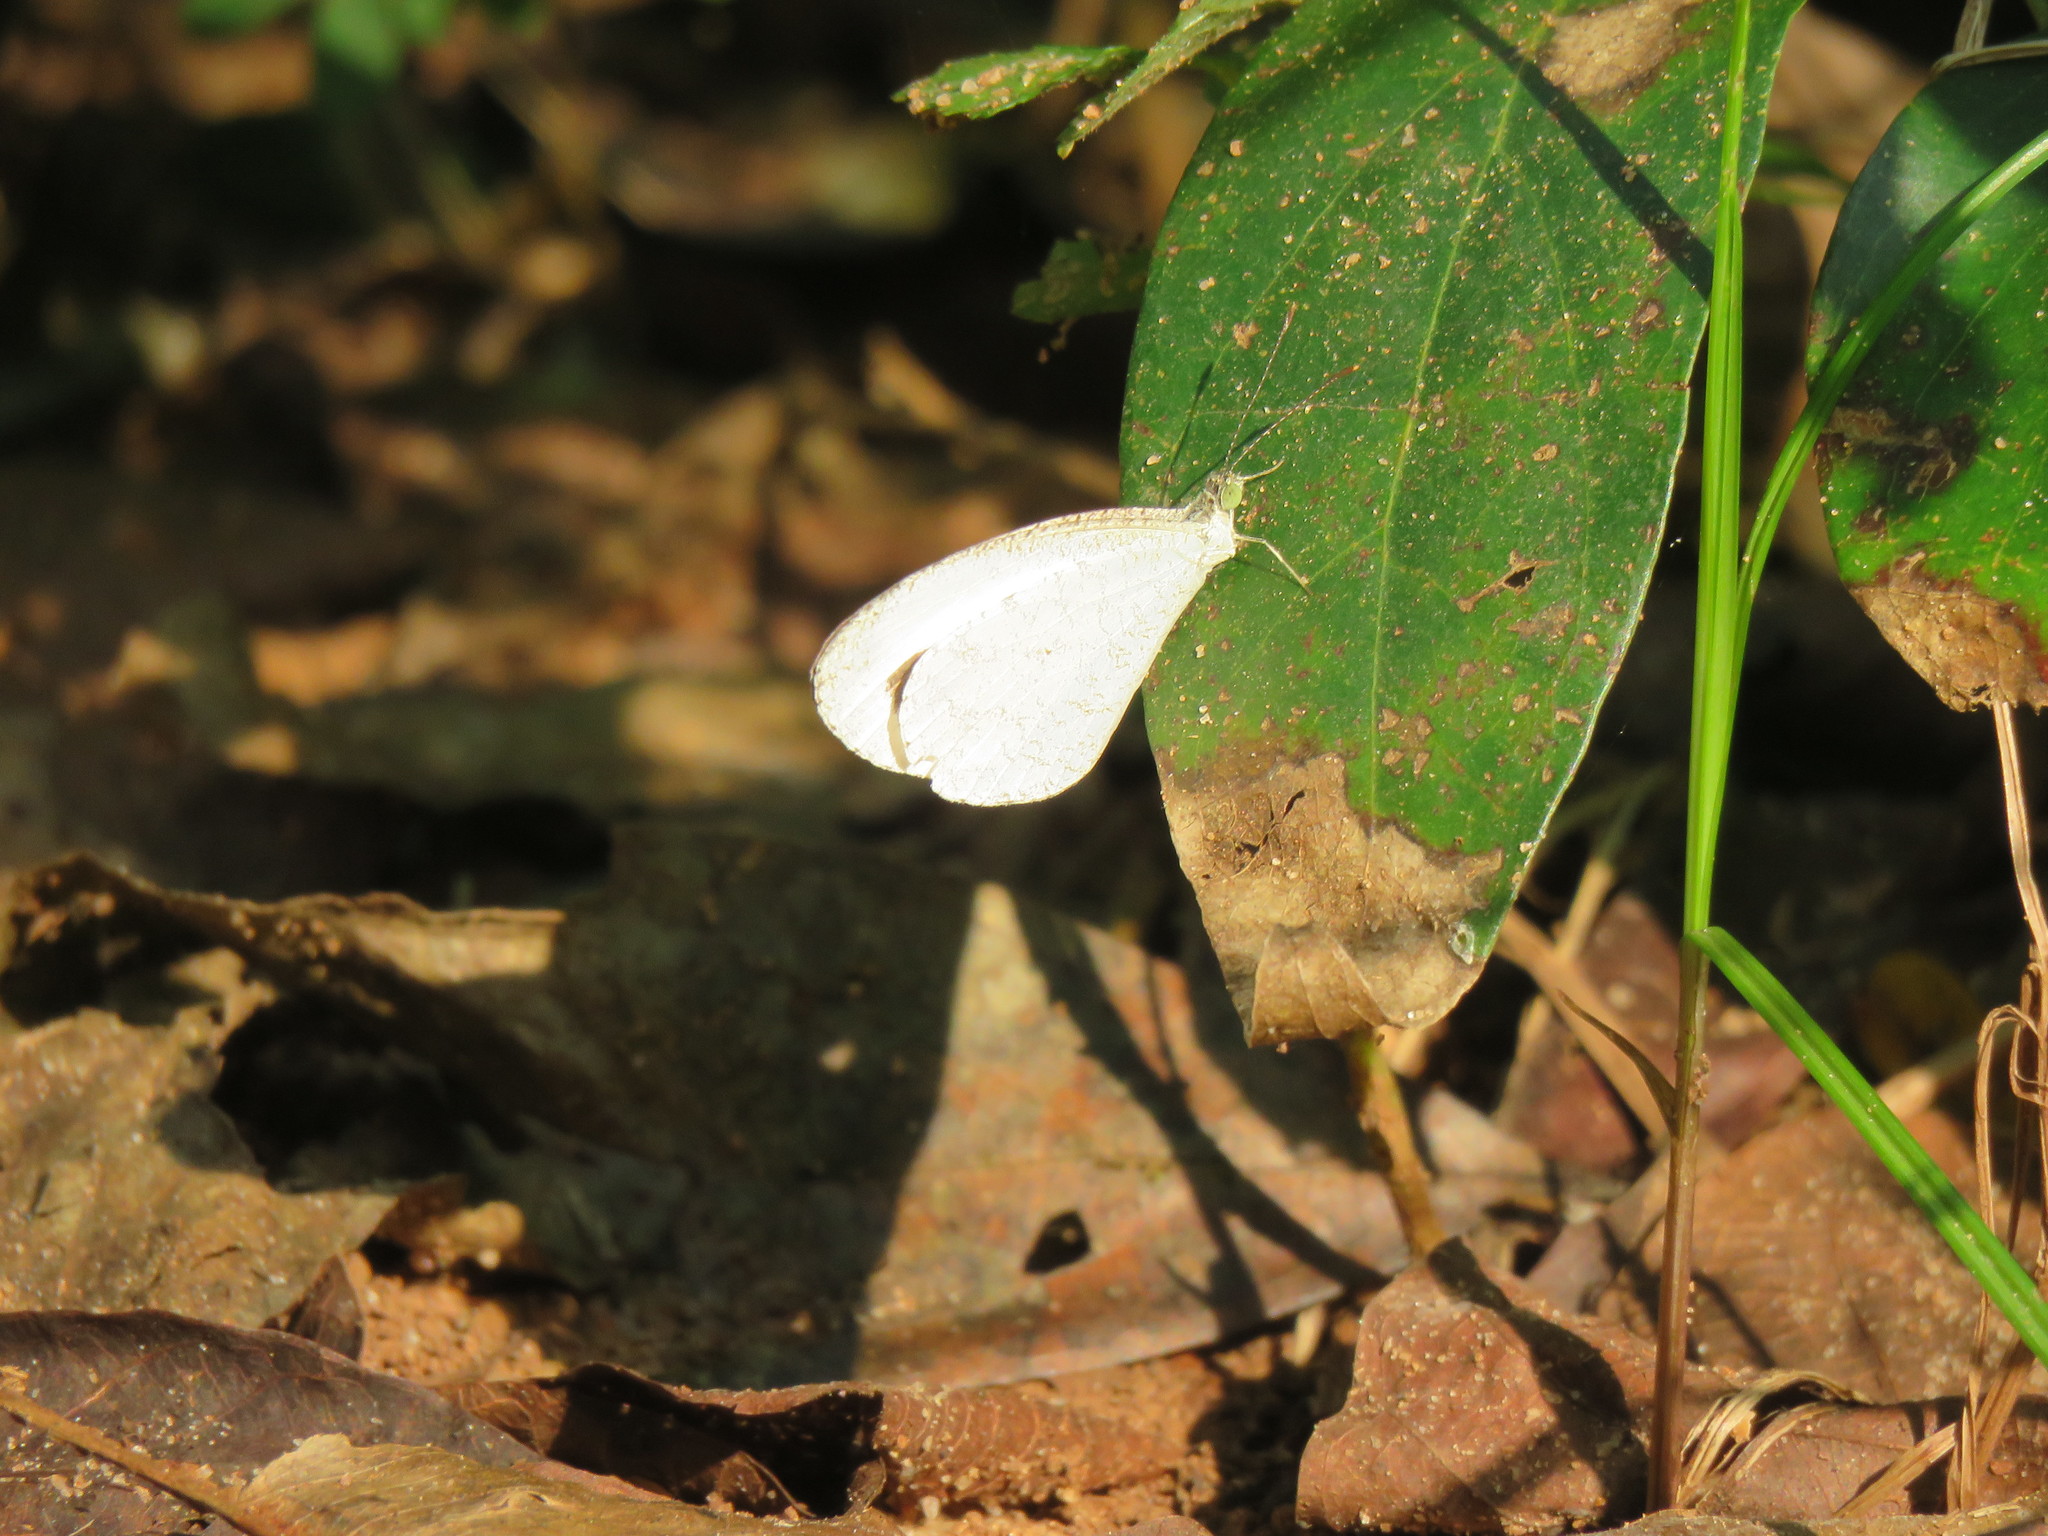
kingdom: Animalia
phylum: Arthropoda
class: Insecta
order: Lepidoptera
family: Pieridae
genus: Leptosia
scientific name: Leptosia nina
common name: Psyche
